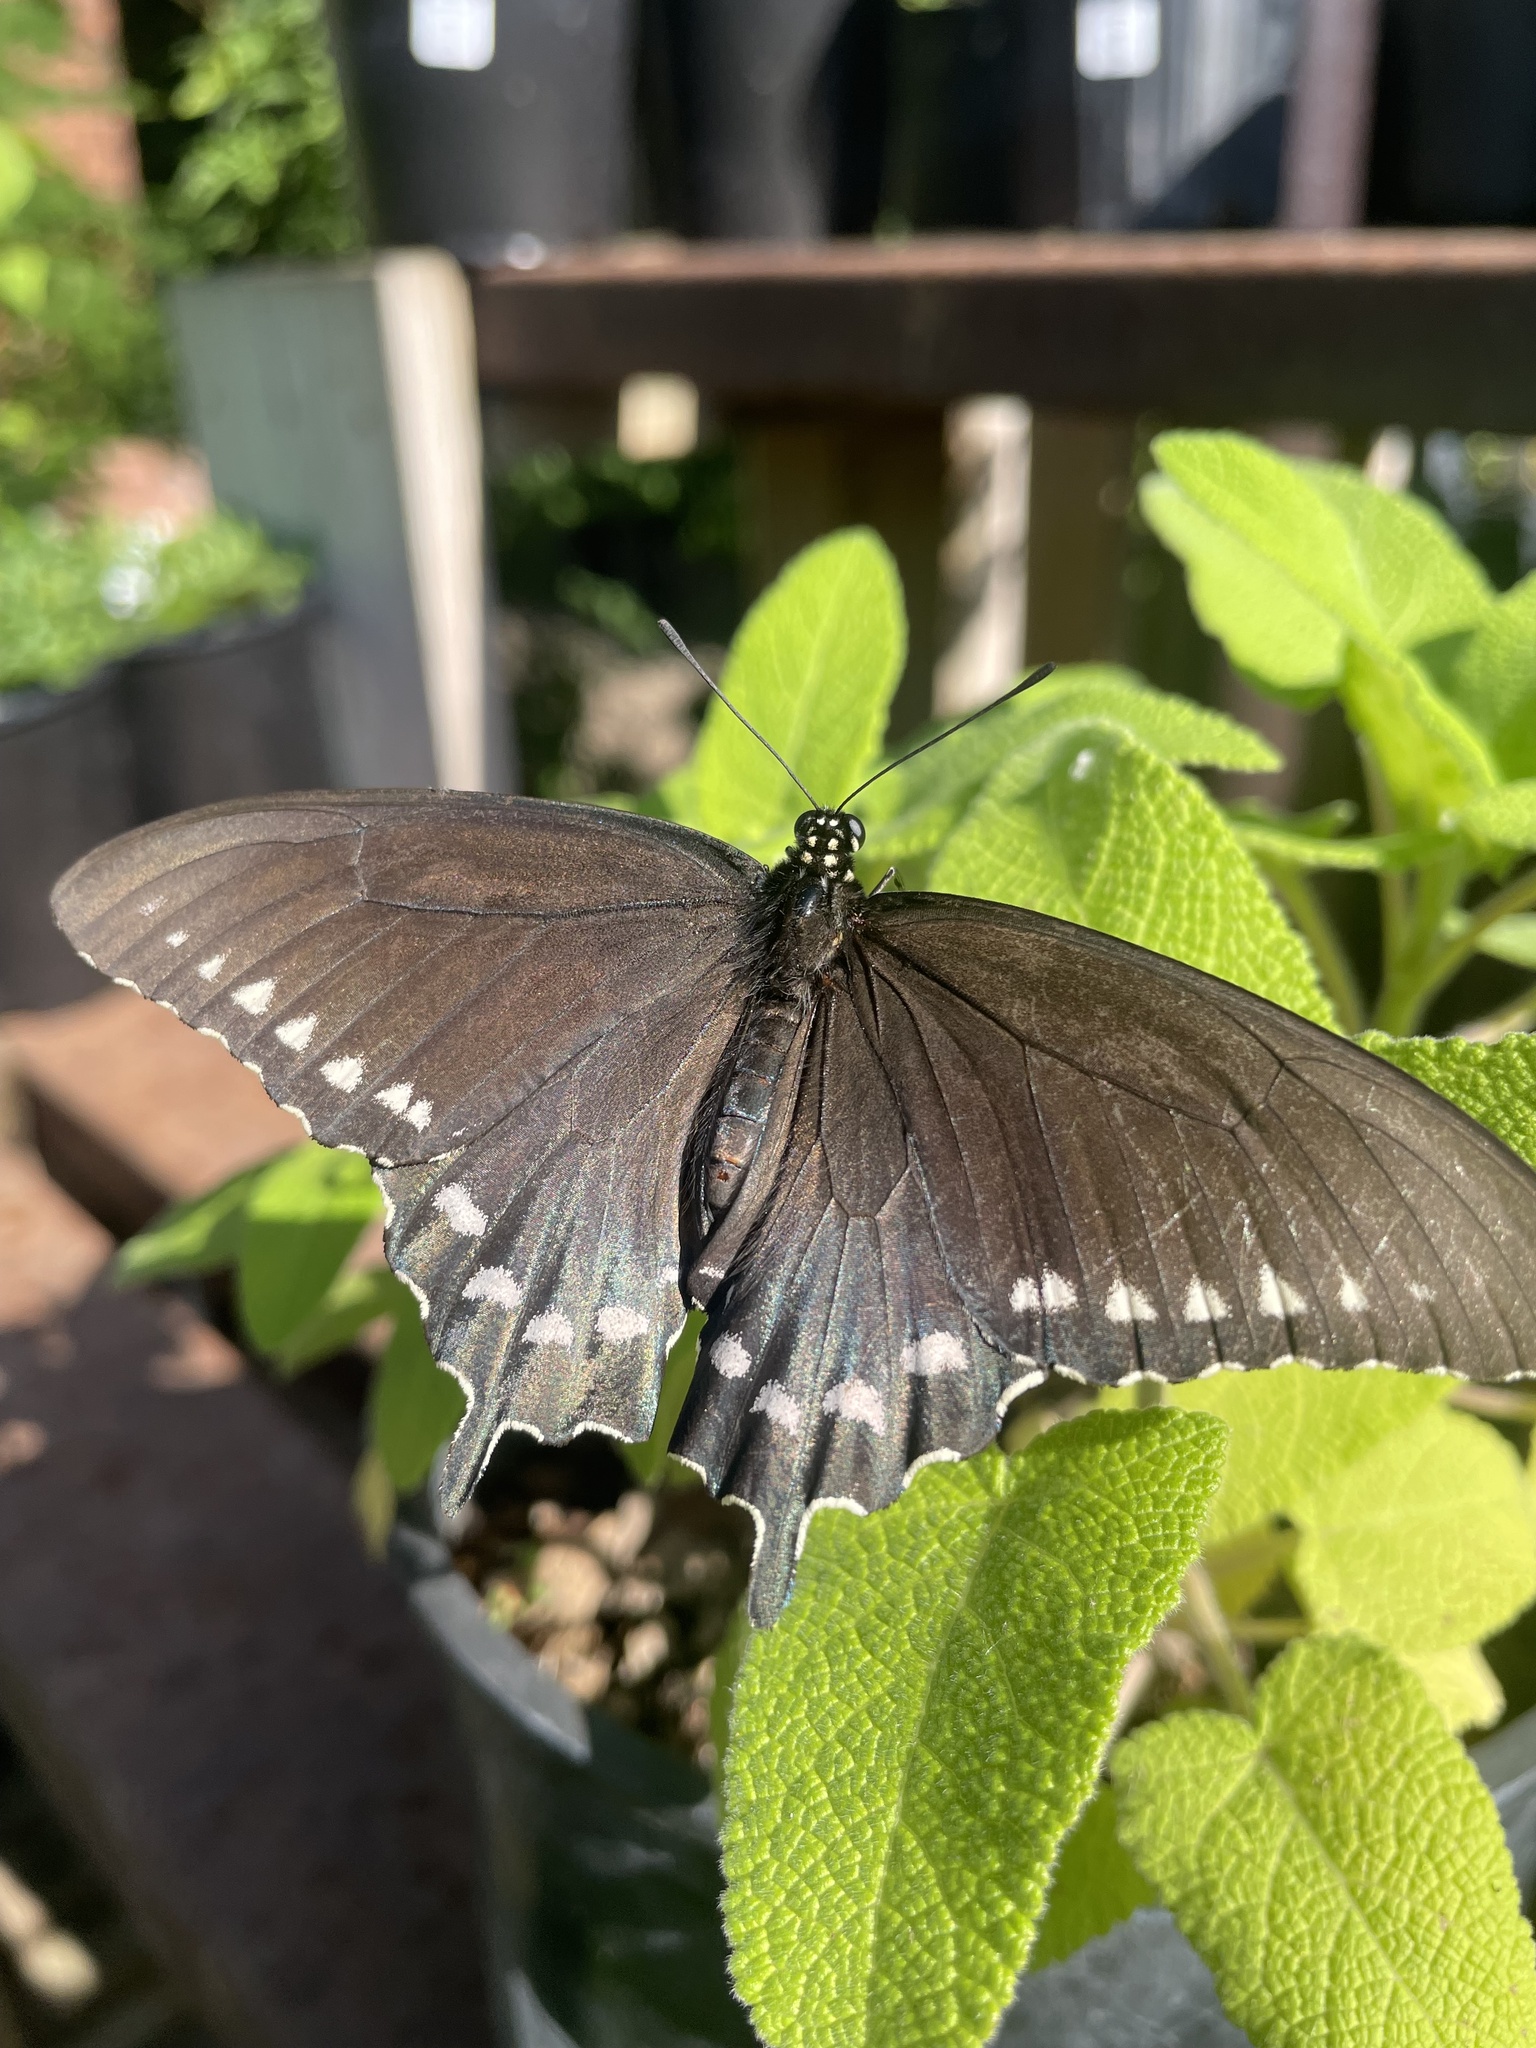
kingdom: Animalia
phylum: Arthropoda
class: Insecta
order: Lepidoptera
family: Papilionidae
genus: Battus
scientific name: Battus philenor
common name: Pipevine swallowtail
